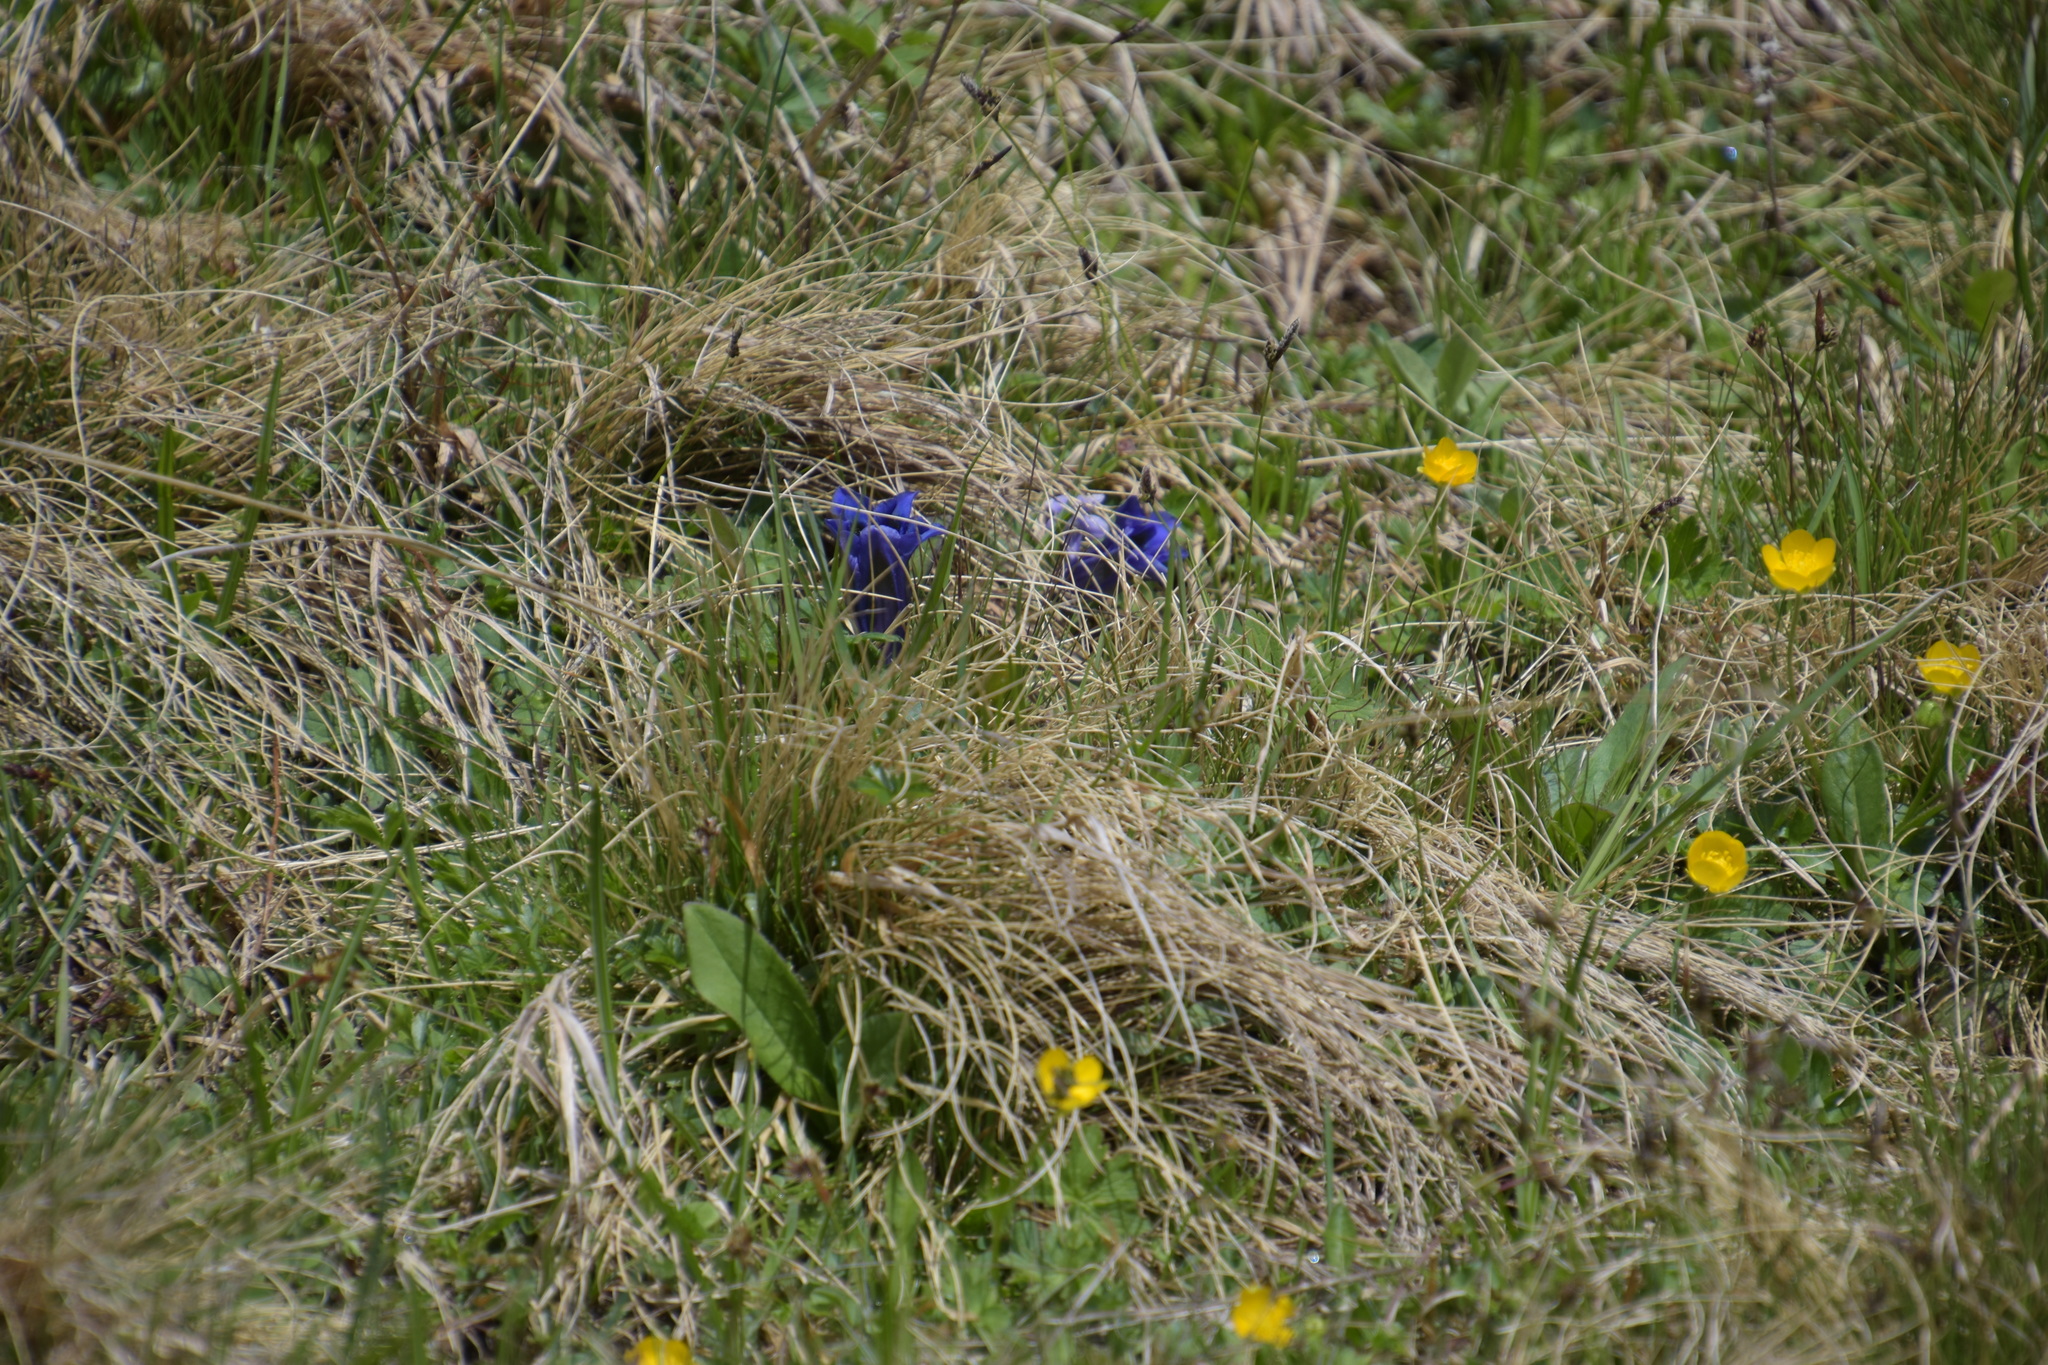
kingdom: Plantae
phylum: Tracheophyta
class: Magnoliopsida
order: Gentianales
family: Gentianaceae
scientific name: Gentianaceae
